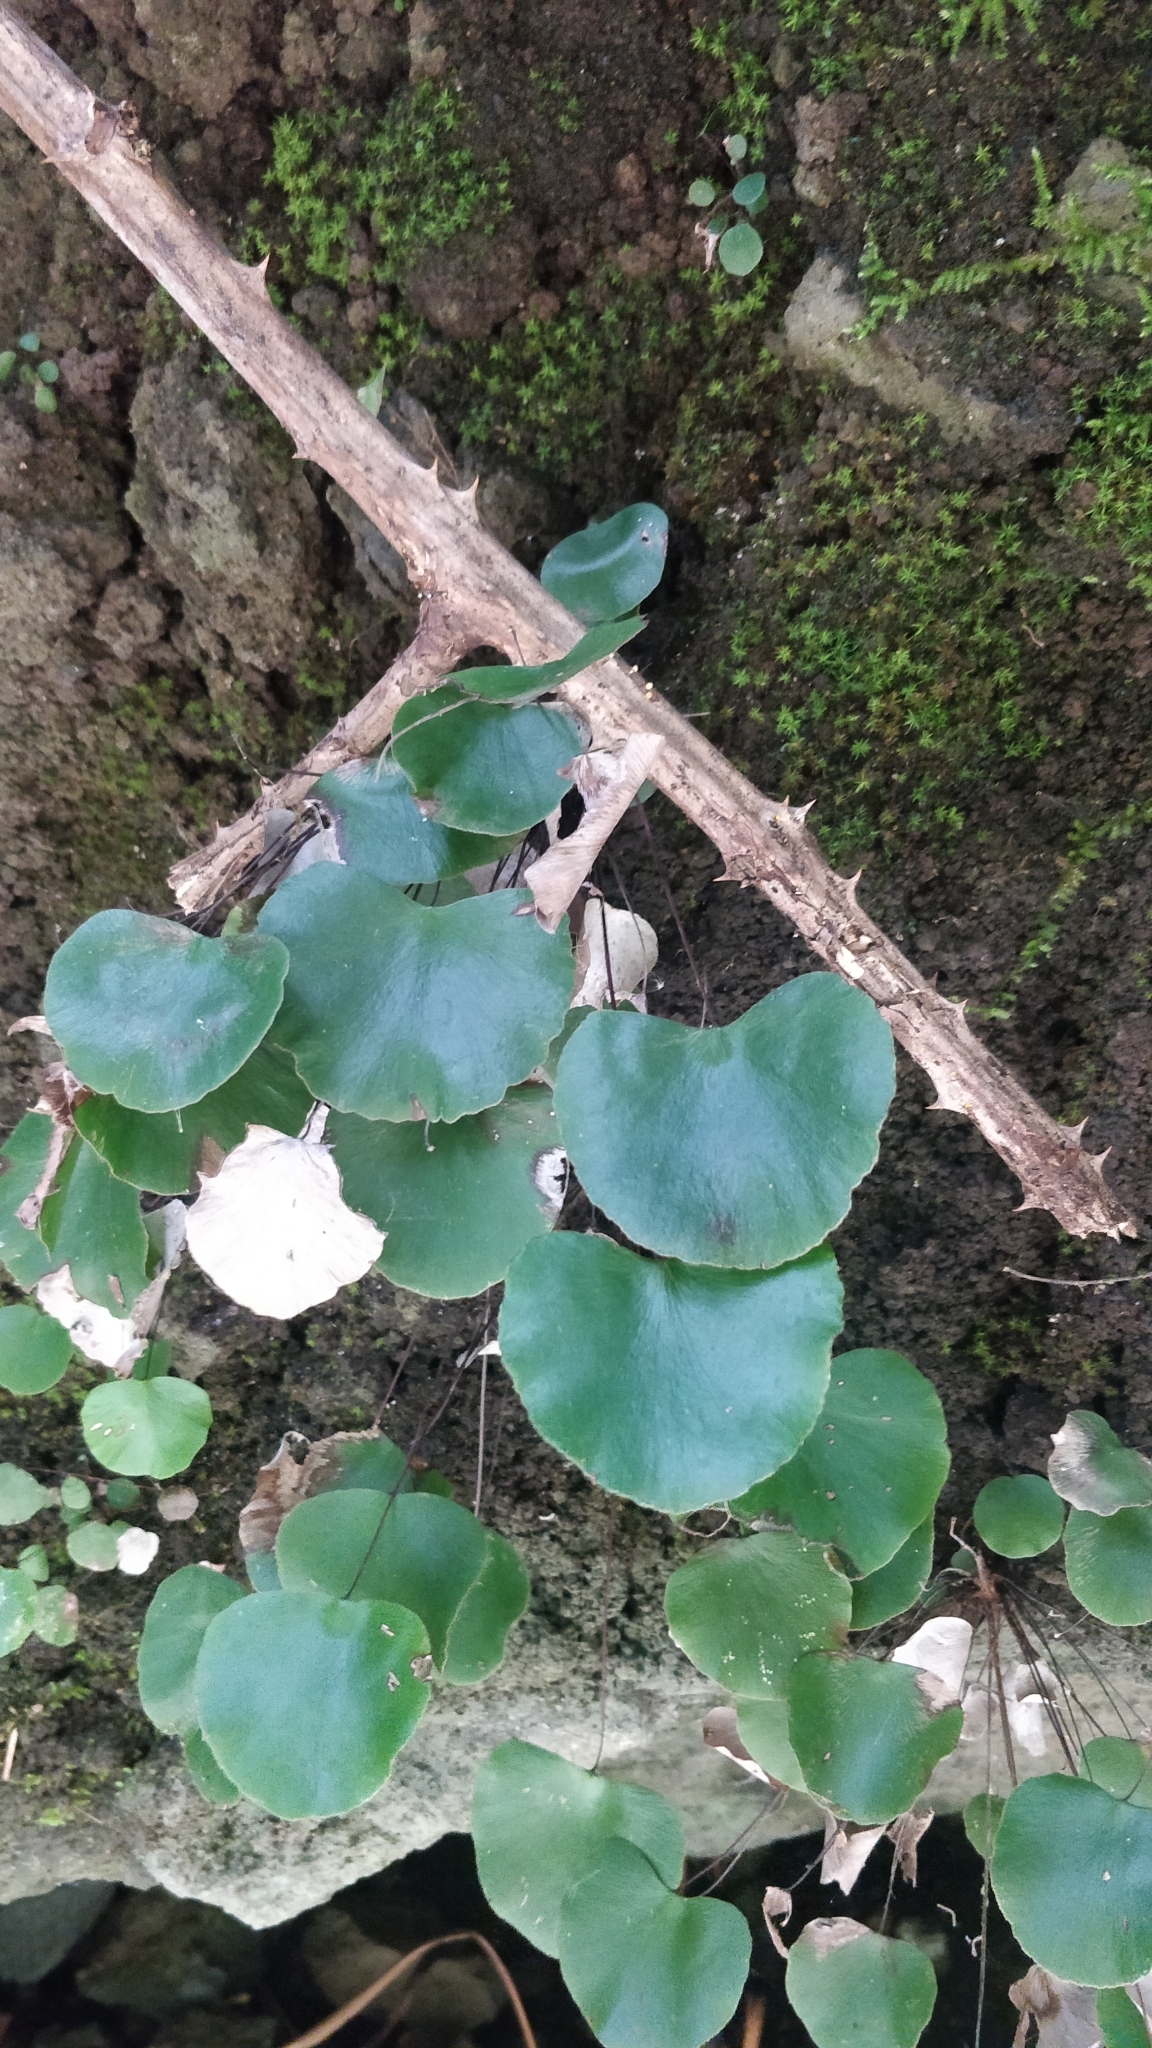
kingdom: Plantae
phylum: Tracheophyta
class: Polypodiopsida
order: Polypodiales
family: Pteridaceae
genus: Adiantum
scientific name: Adiantum reniforme
